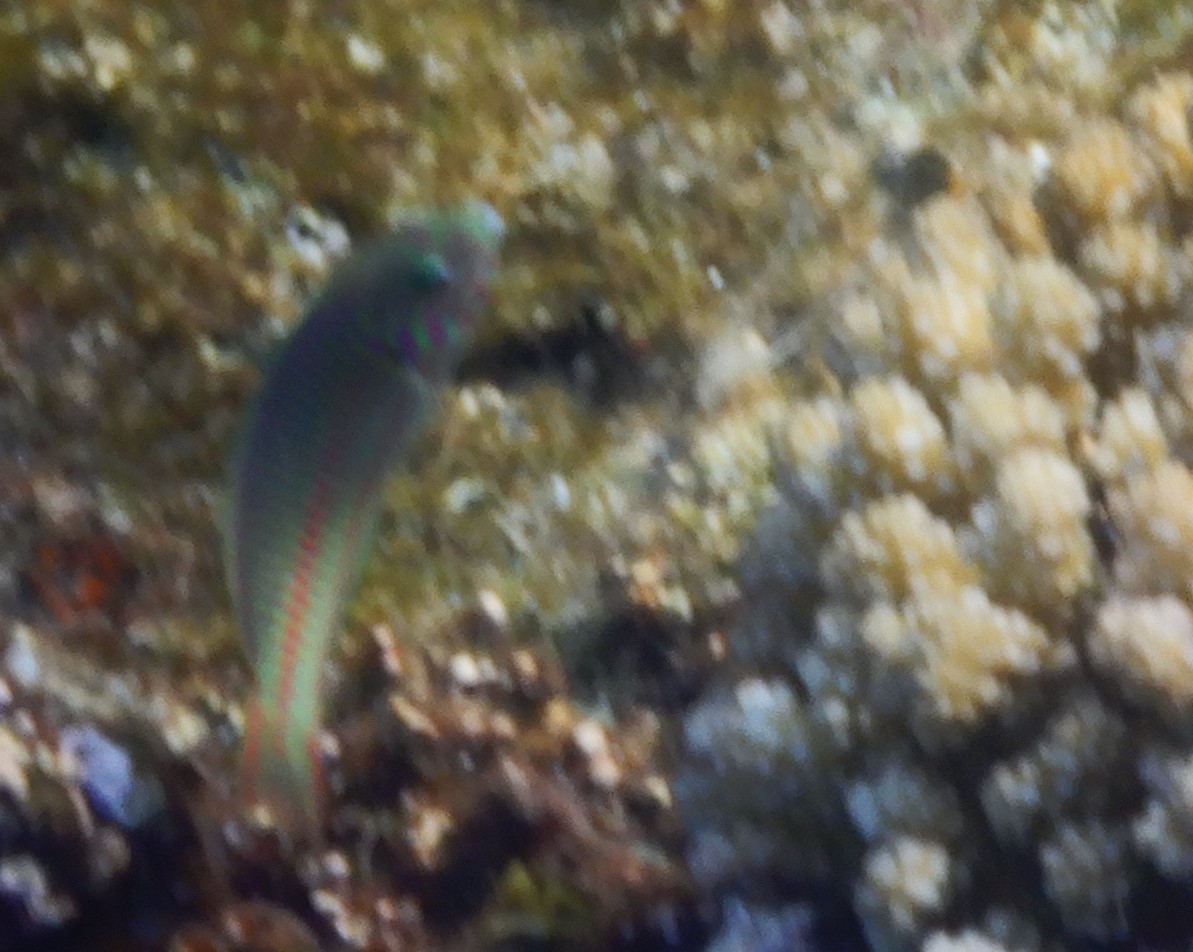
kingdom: Animalia
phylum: Chordata
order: Perciformes
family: Labridae
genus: Thalassoma
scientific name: Thalassoma rueppellii
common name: Klunzinger's wrasse
